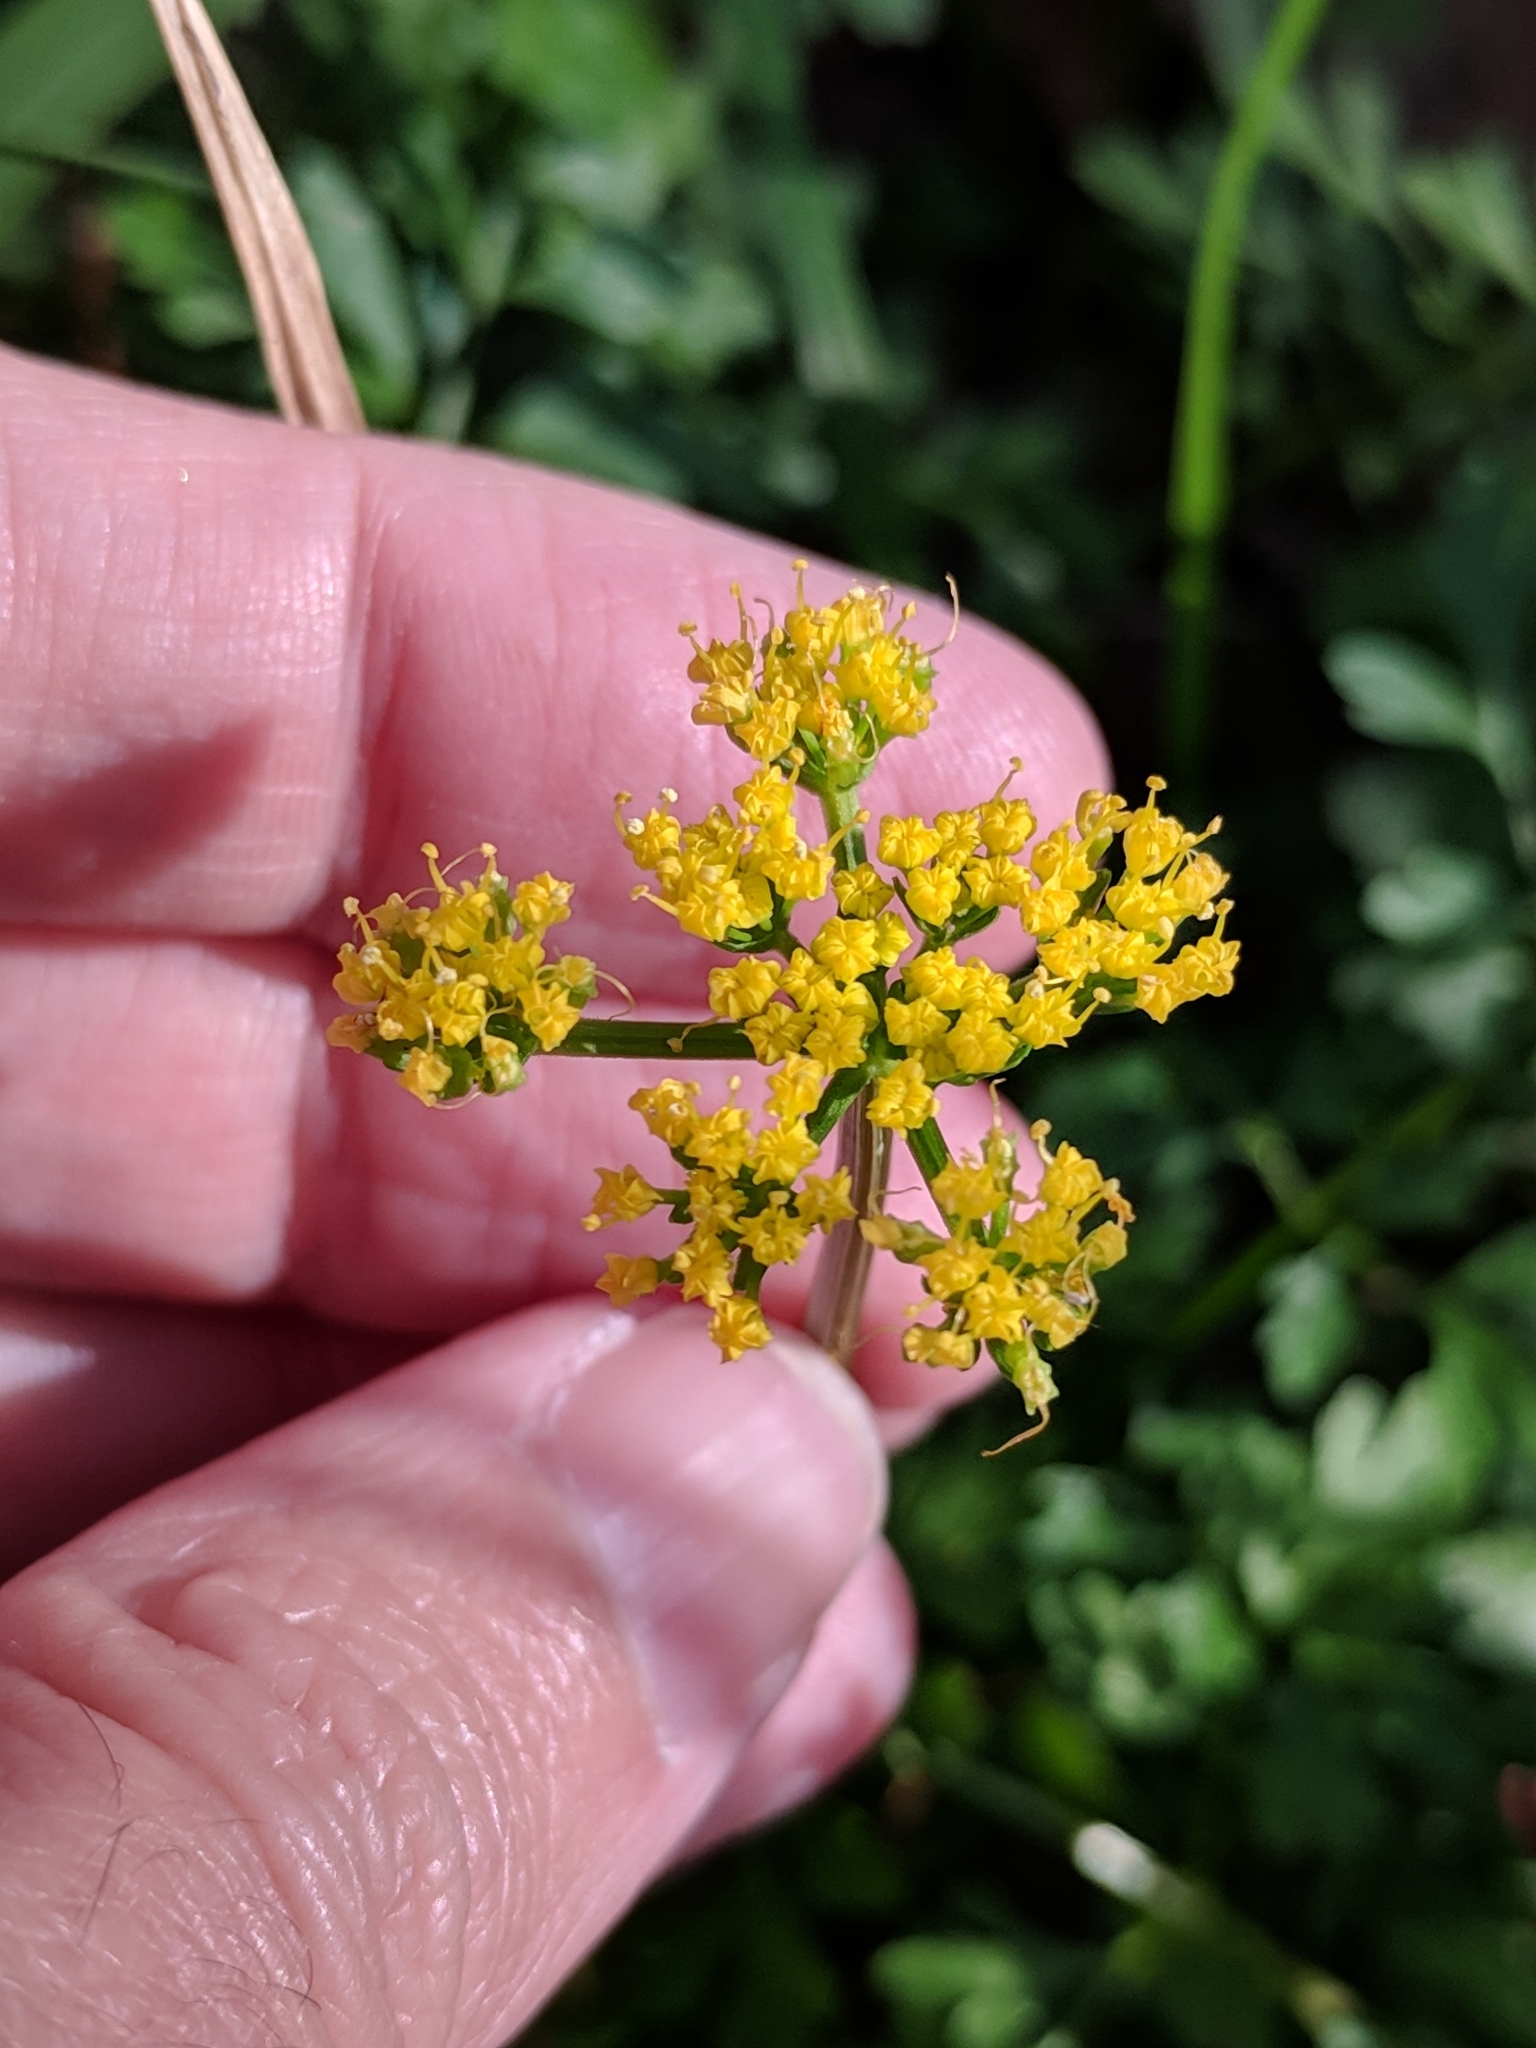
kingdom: Plantae
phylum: Tracheophyta
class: Magnoliopsida
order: Apiales
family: Apiaceae
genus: Tauschia
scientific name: Tauschia texana
